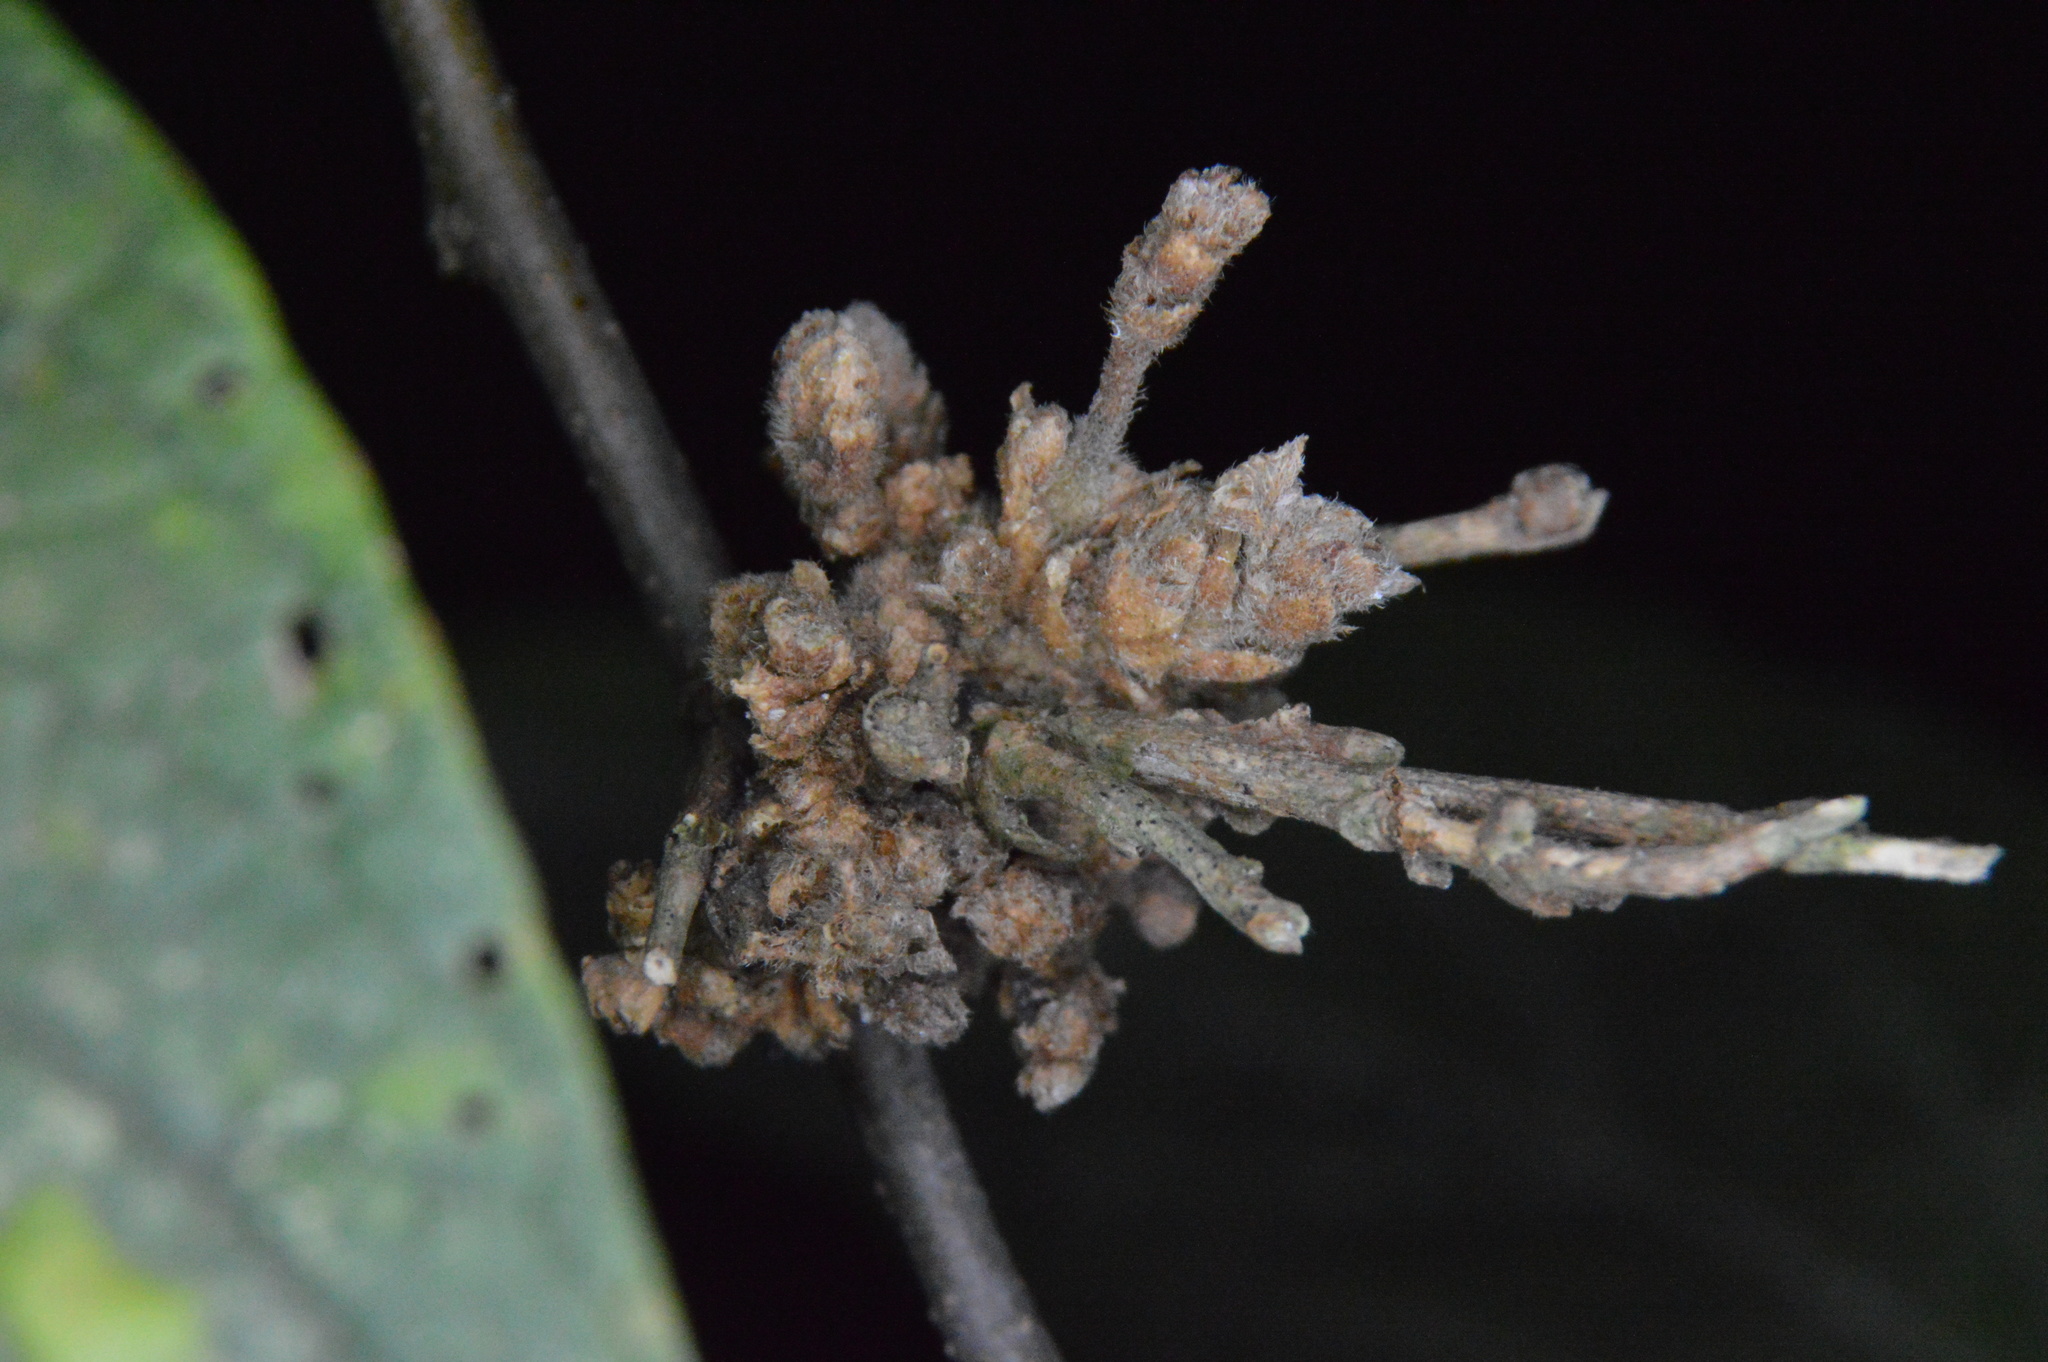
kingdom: Animalia
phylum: Arthropoda
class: Arachnida
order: Trombidiformes
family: Eriophyidae
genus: Aceria
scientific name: Aceria
